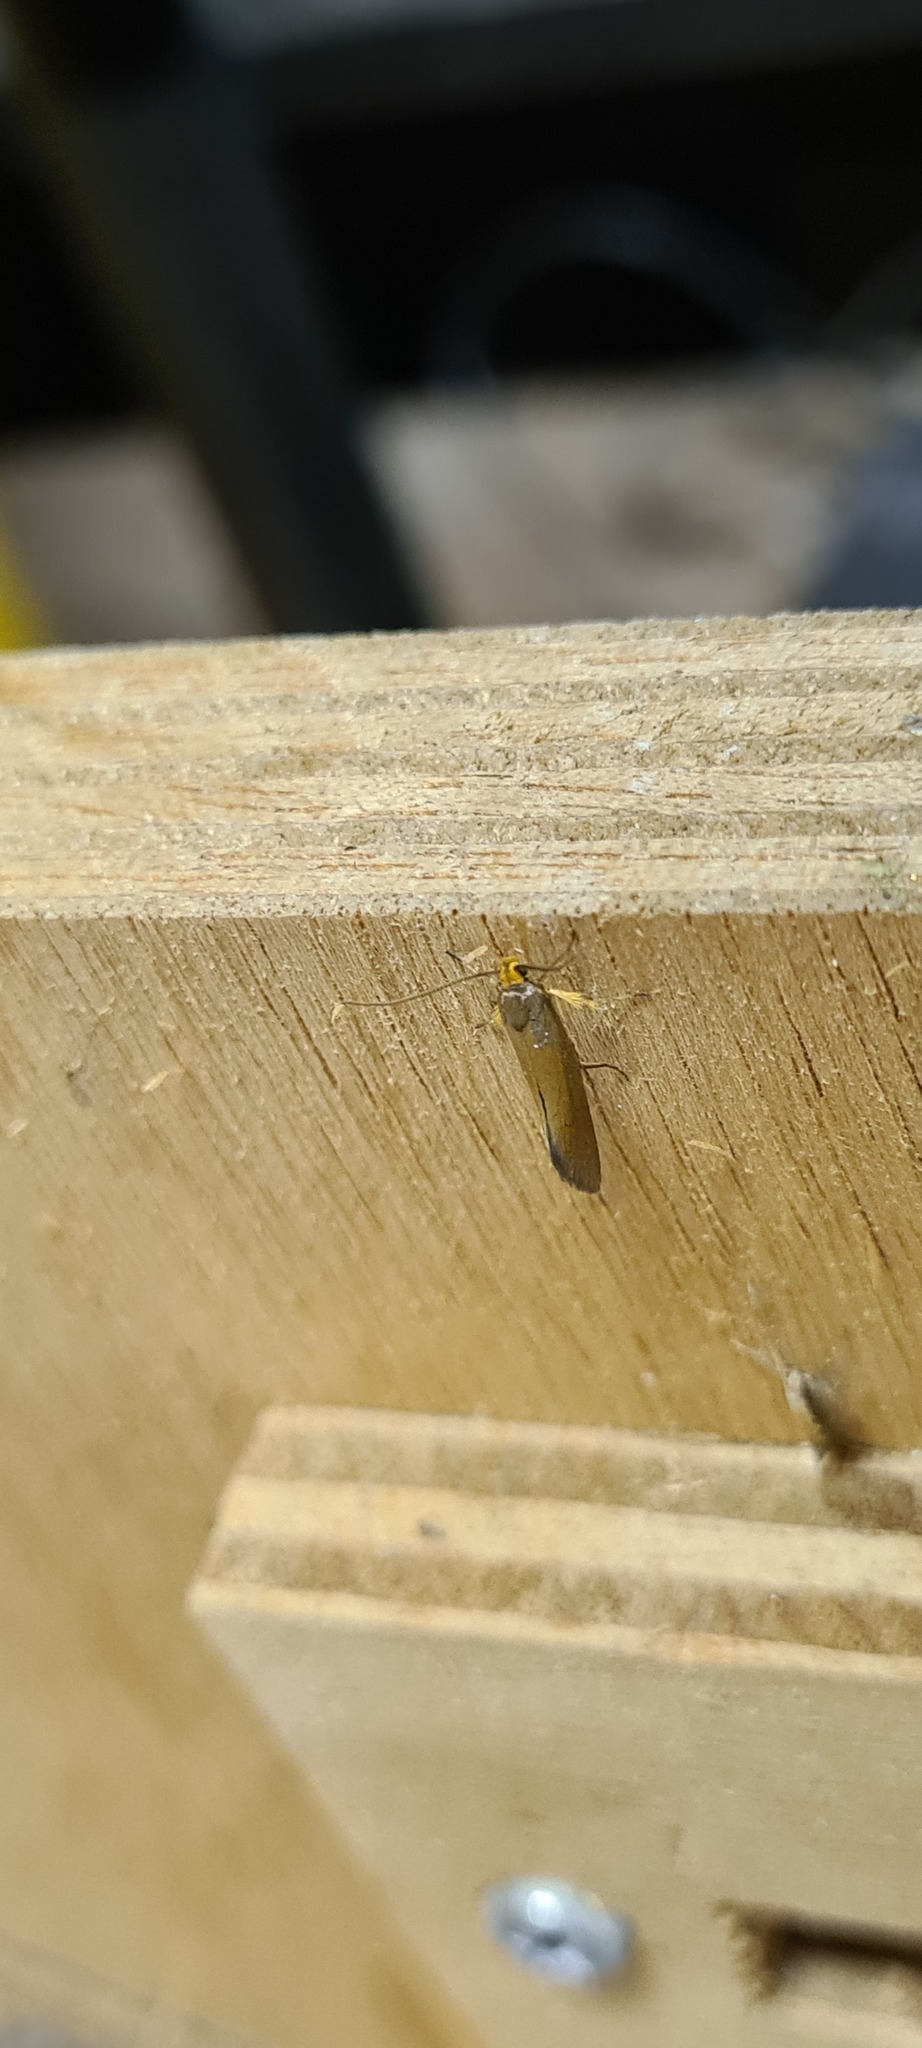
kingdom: Animalia
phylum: Arthropoda
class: Insecta
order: Lepidoptera
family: Oecophoridae
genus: Borkhausenia
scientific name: Borkhausenia Crassa unitella
